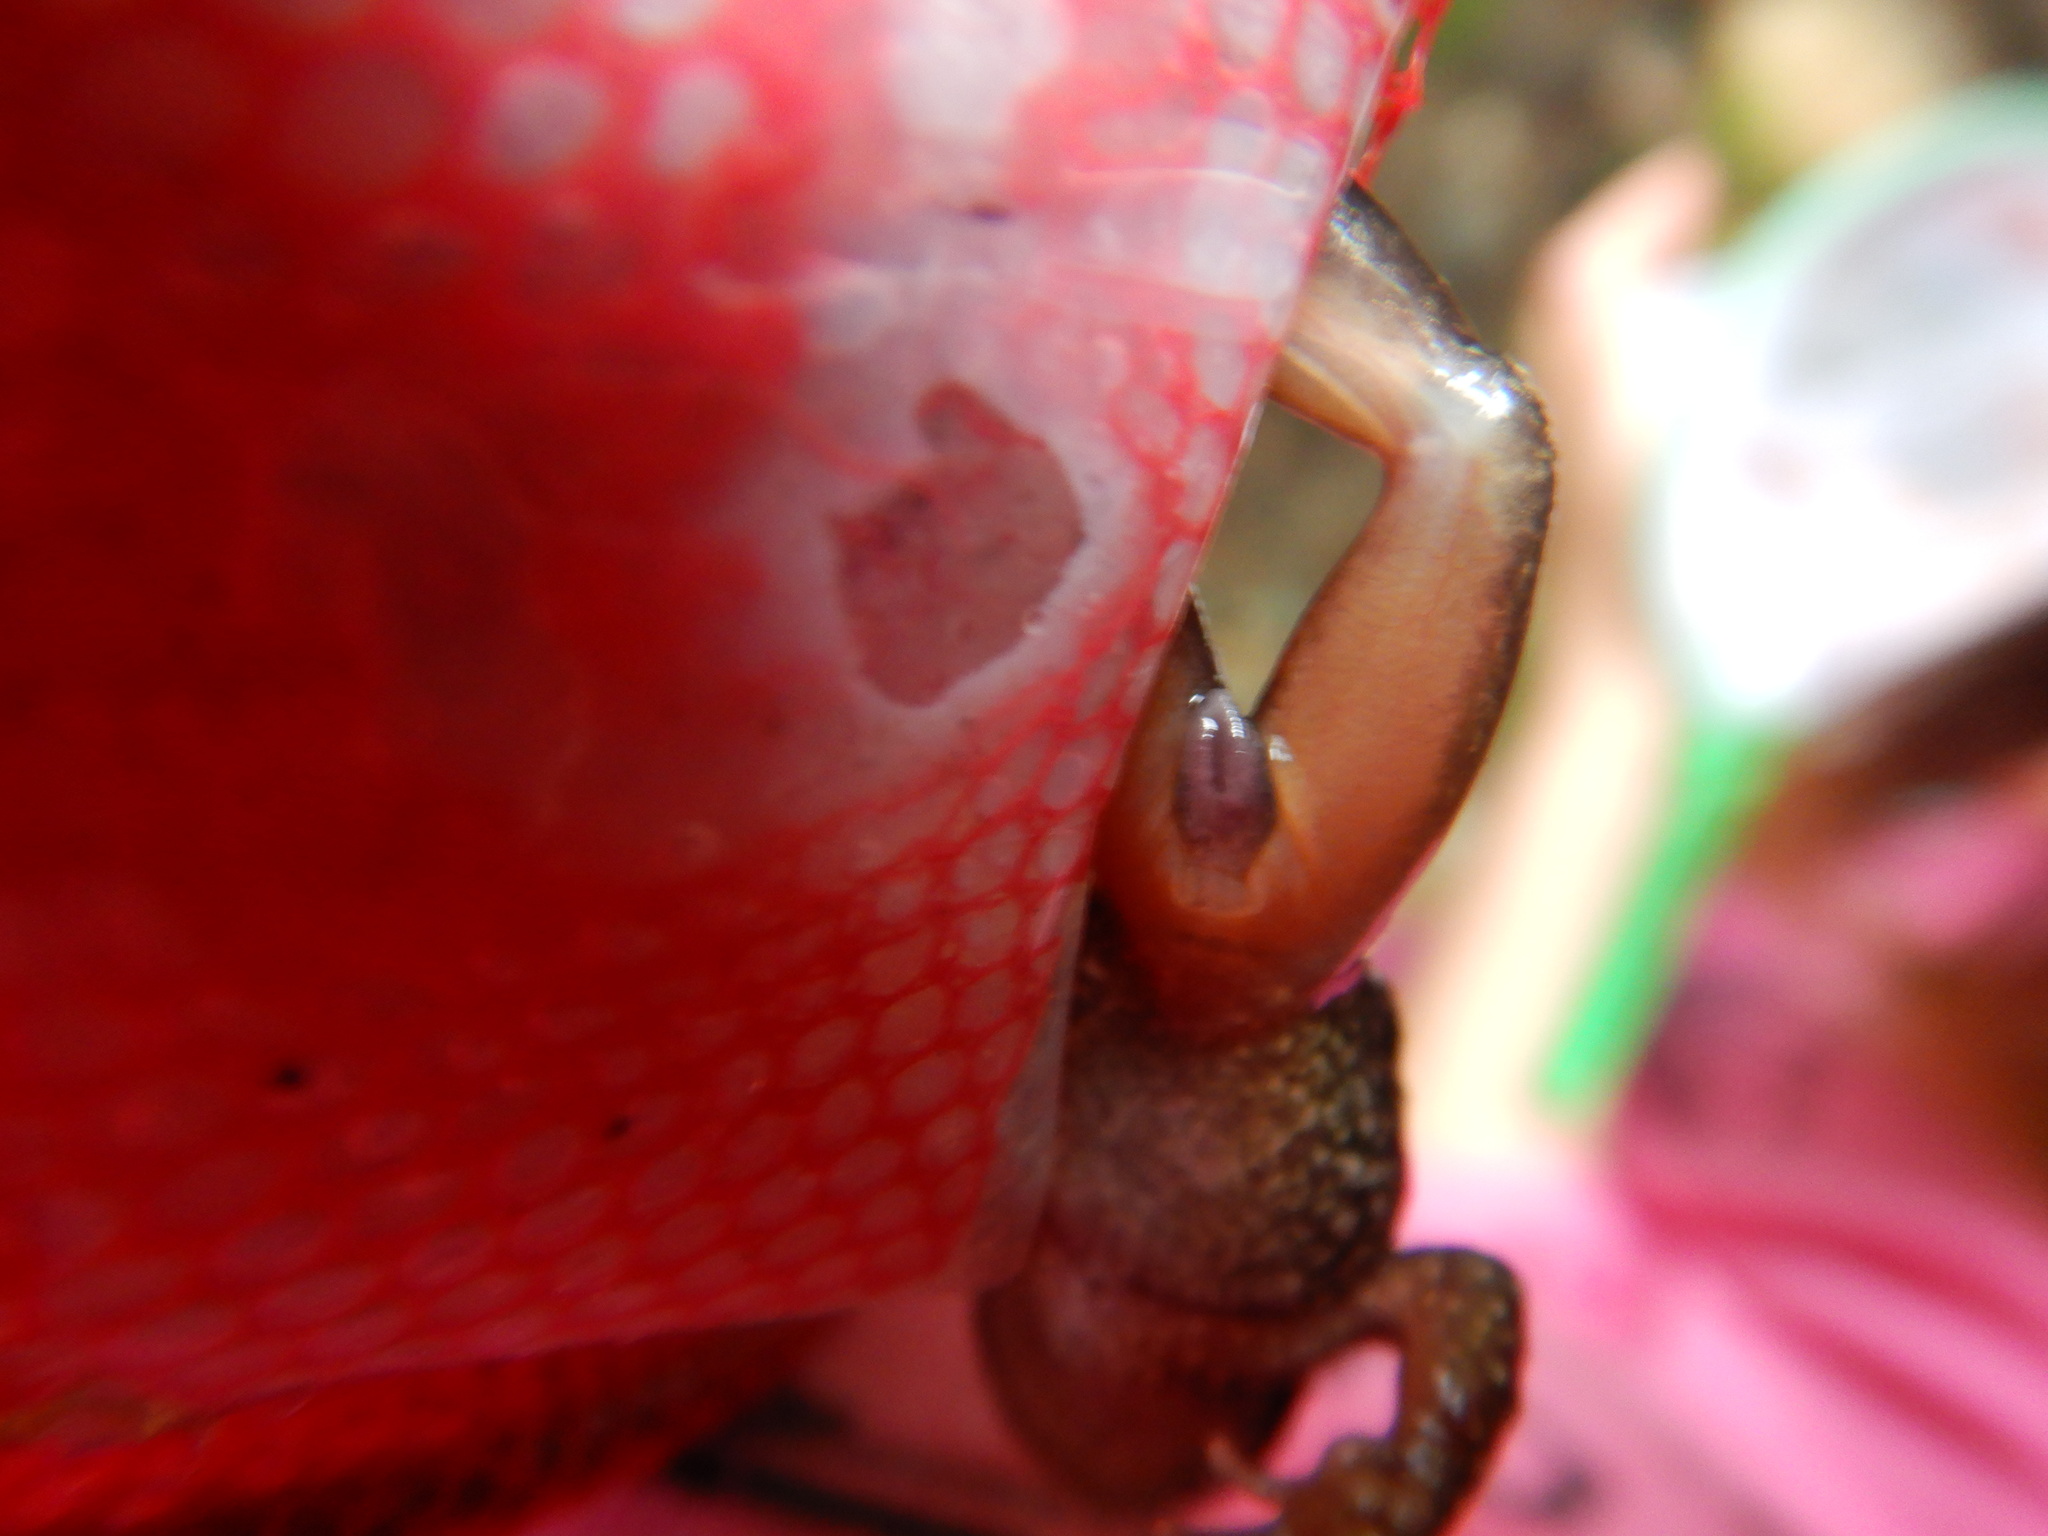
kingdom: Animalia
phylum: Chordata
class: Amphibia
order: Anura
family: Ascaphidae
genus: Ascaphus
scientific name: Ascaphus truei
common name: Tailed frog
